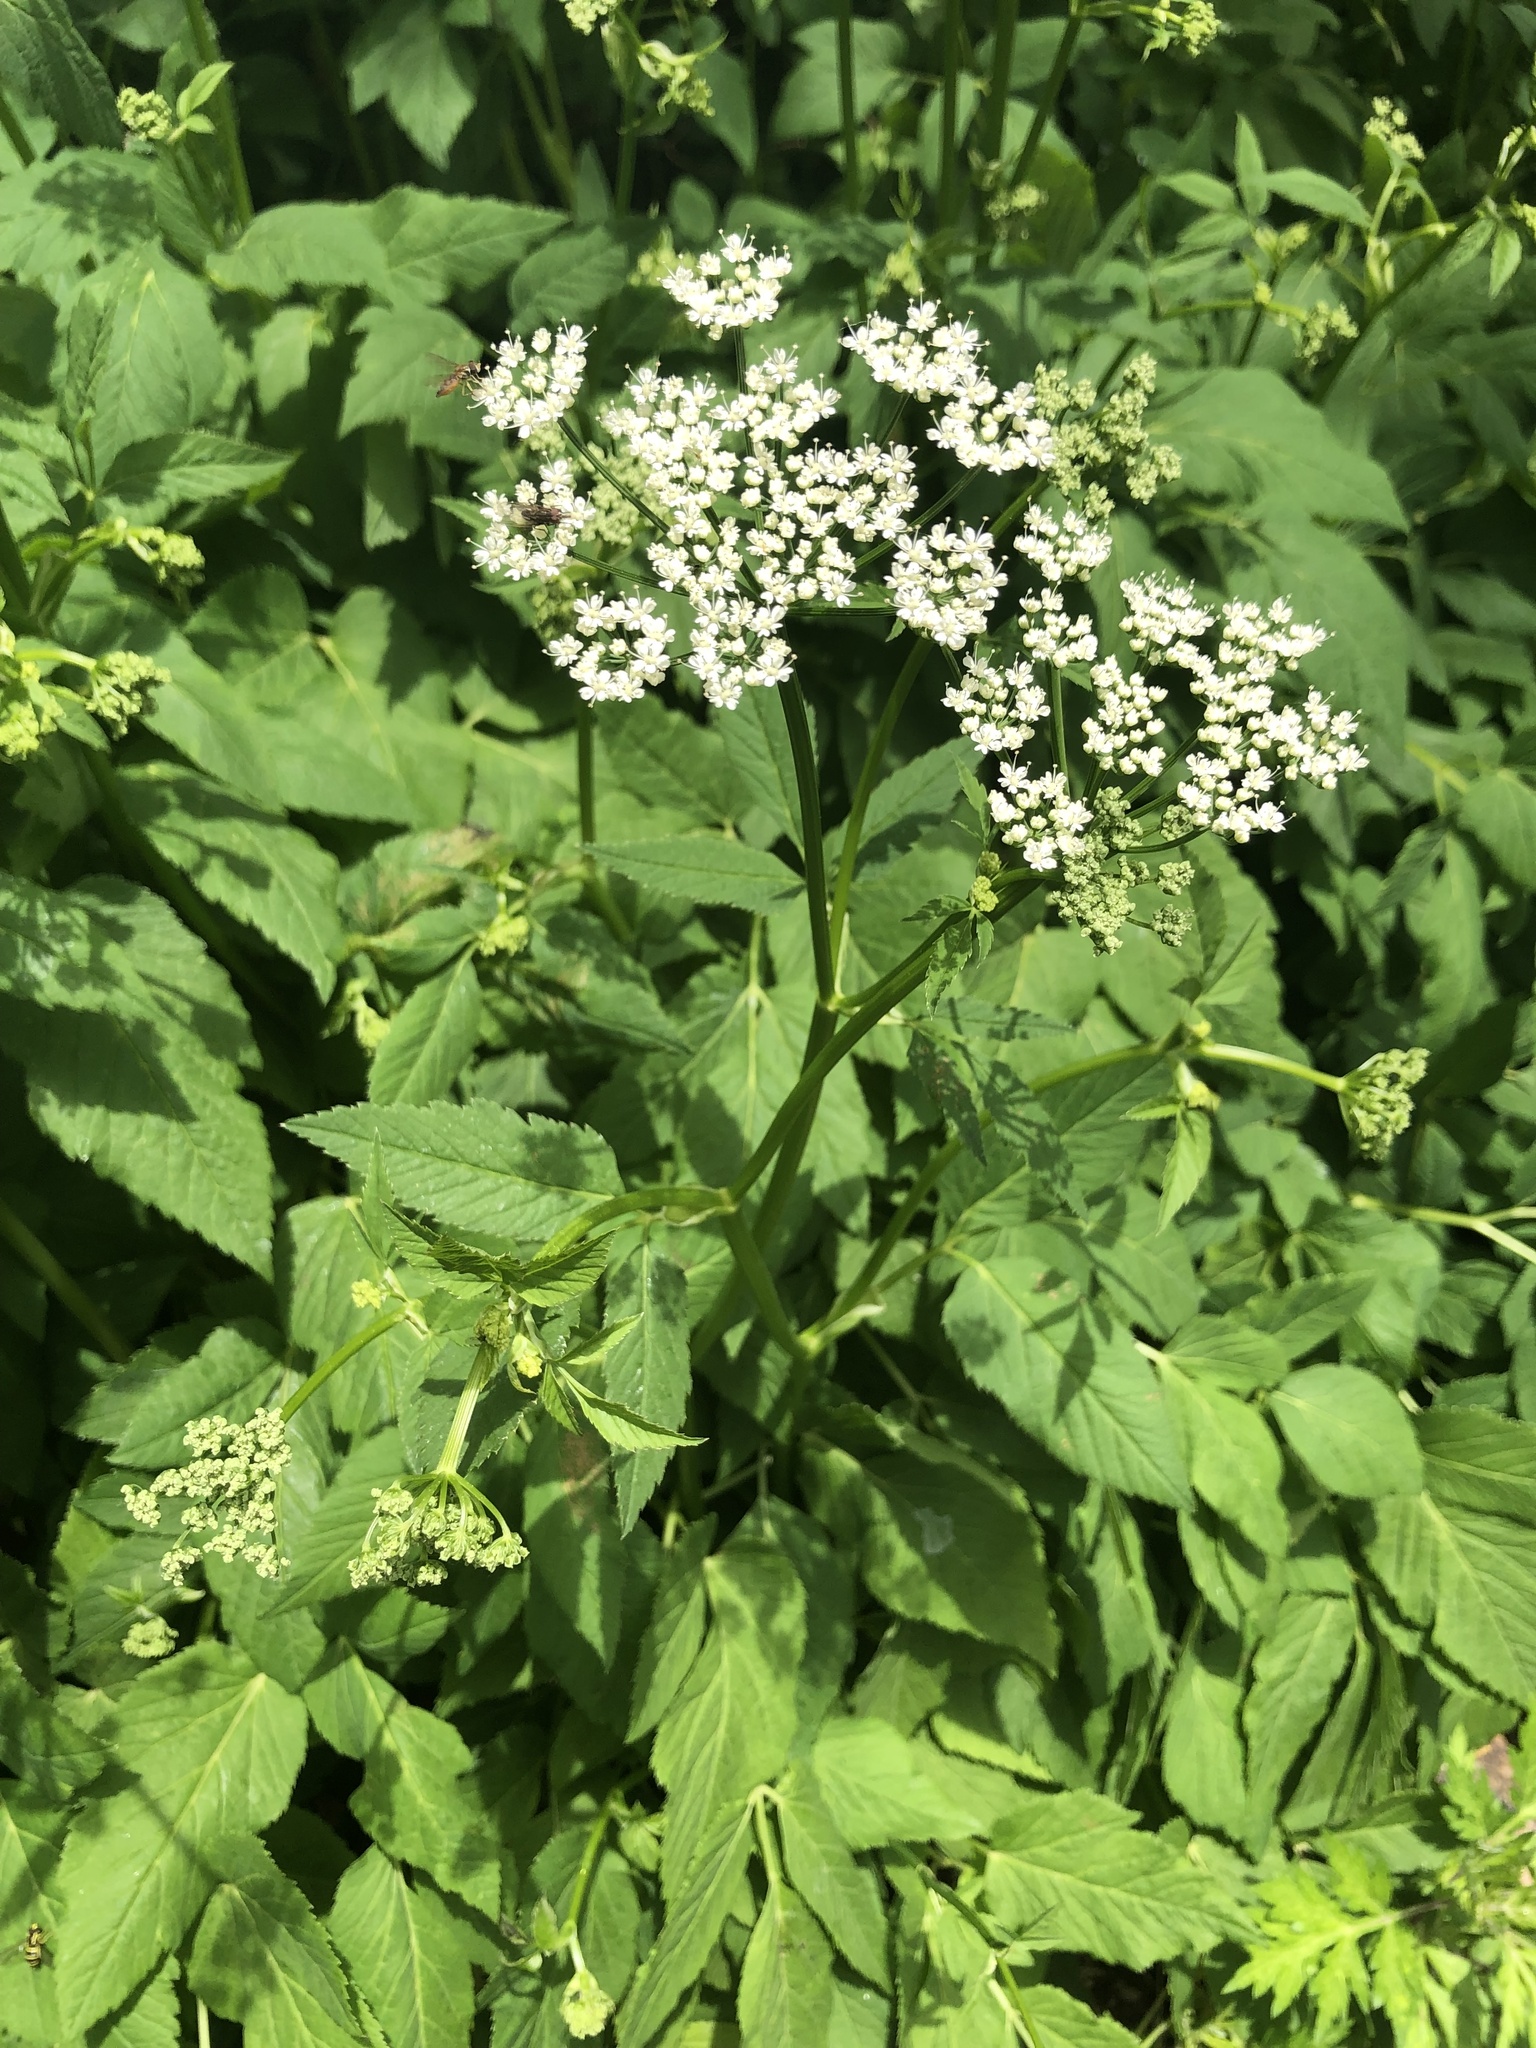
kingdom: Plantae
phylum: Tracheophyta
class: Magnoliopsida
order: Apiales
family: Apiaceae
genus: Aegopodium
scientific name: Aegopodium podagraria
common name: Ground-elder
